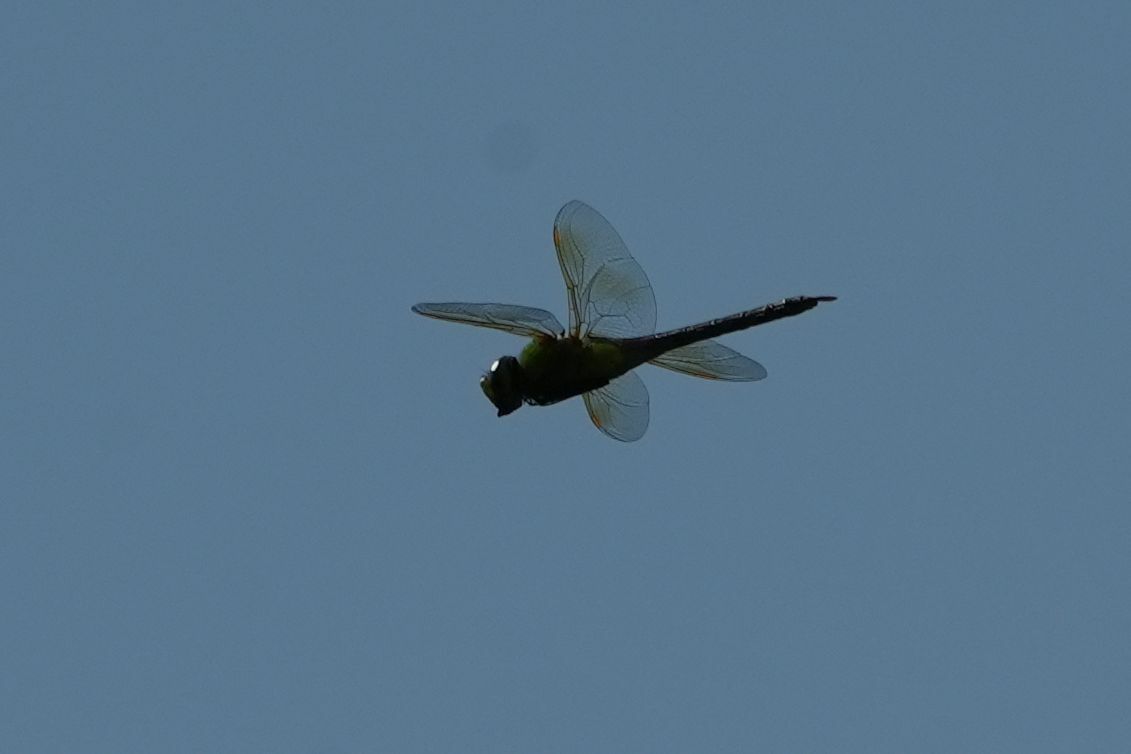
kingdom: Animalia
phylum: Arthropoda
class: Insecta
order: Odonata
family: Aeshnidae
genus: Anax
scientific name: Anax junius
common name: Common green darner
